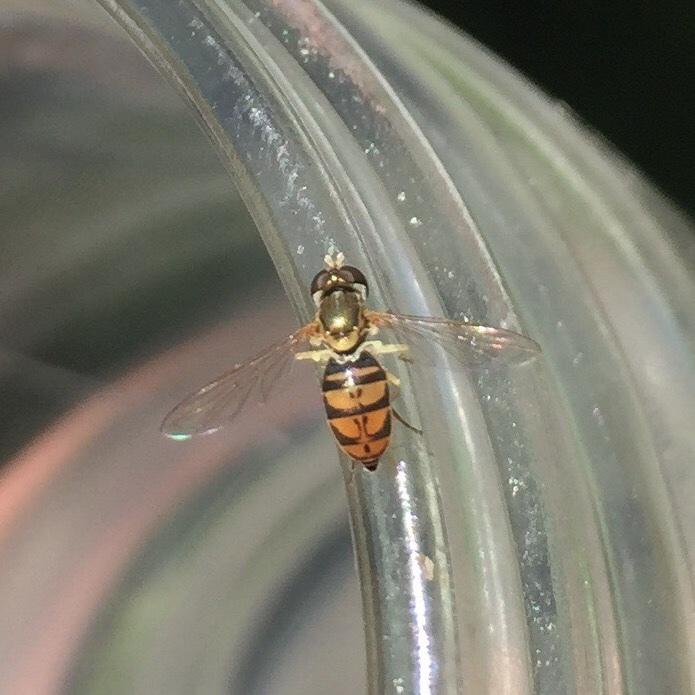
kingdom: Animalia
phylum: Arthropoda
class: Insecta
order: Diptera
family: Syrphidae
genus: Toxomerus
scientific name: Toxomerus marginatus
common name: Syrphid fly
